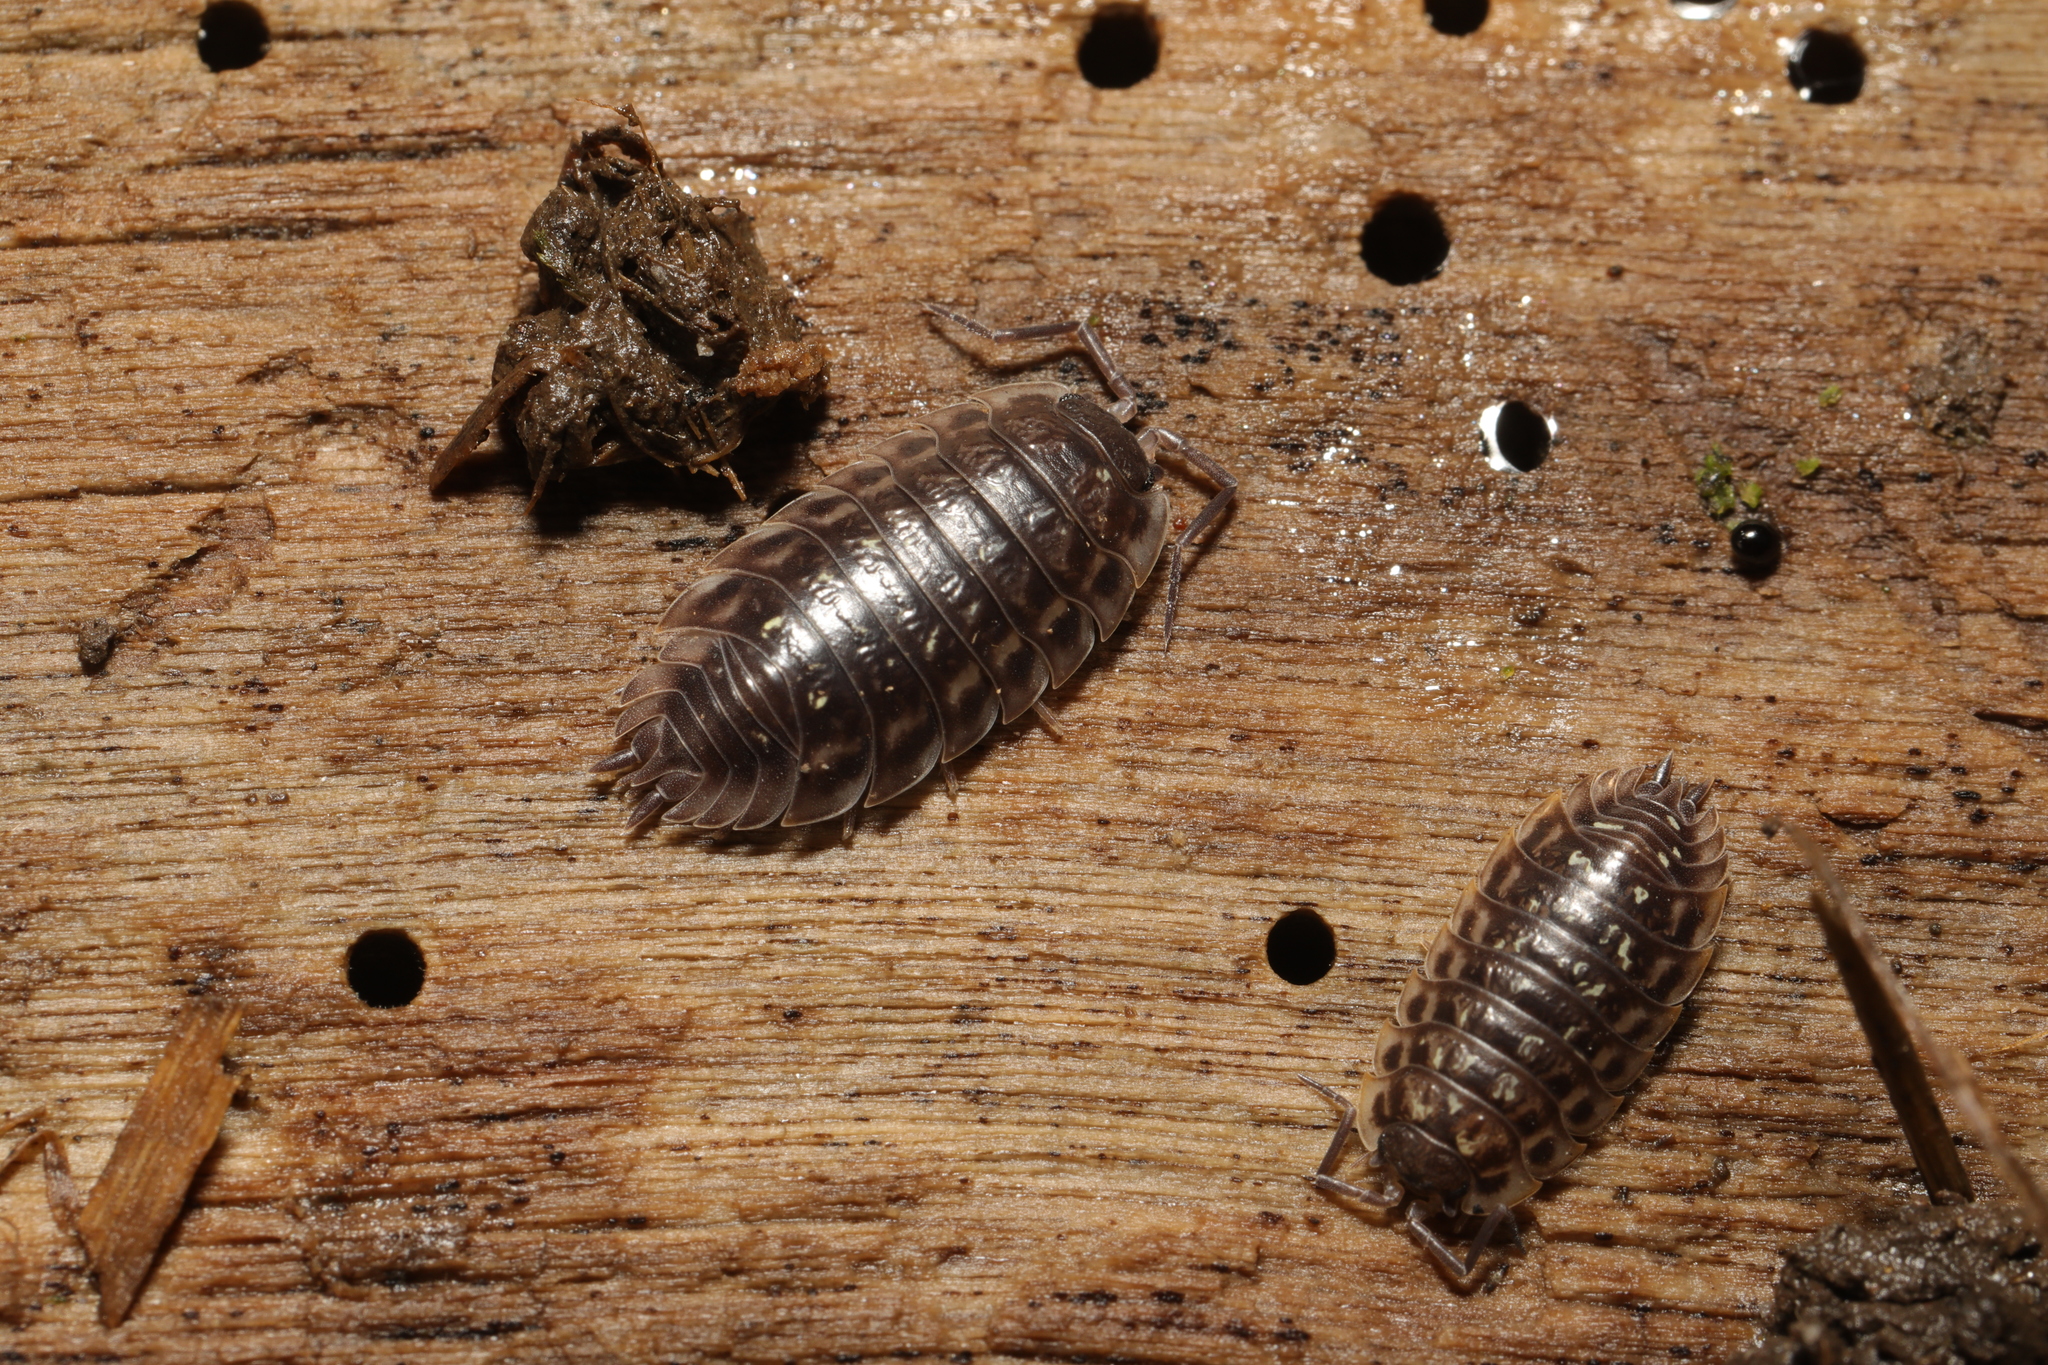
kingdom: Animalia
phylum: Arthropoda
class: Malacostraca
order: Isopoda
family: Oniscidae
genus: Oniscus
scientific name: Oniscus asellus
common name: Common shiny woodlouse
